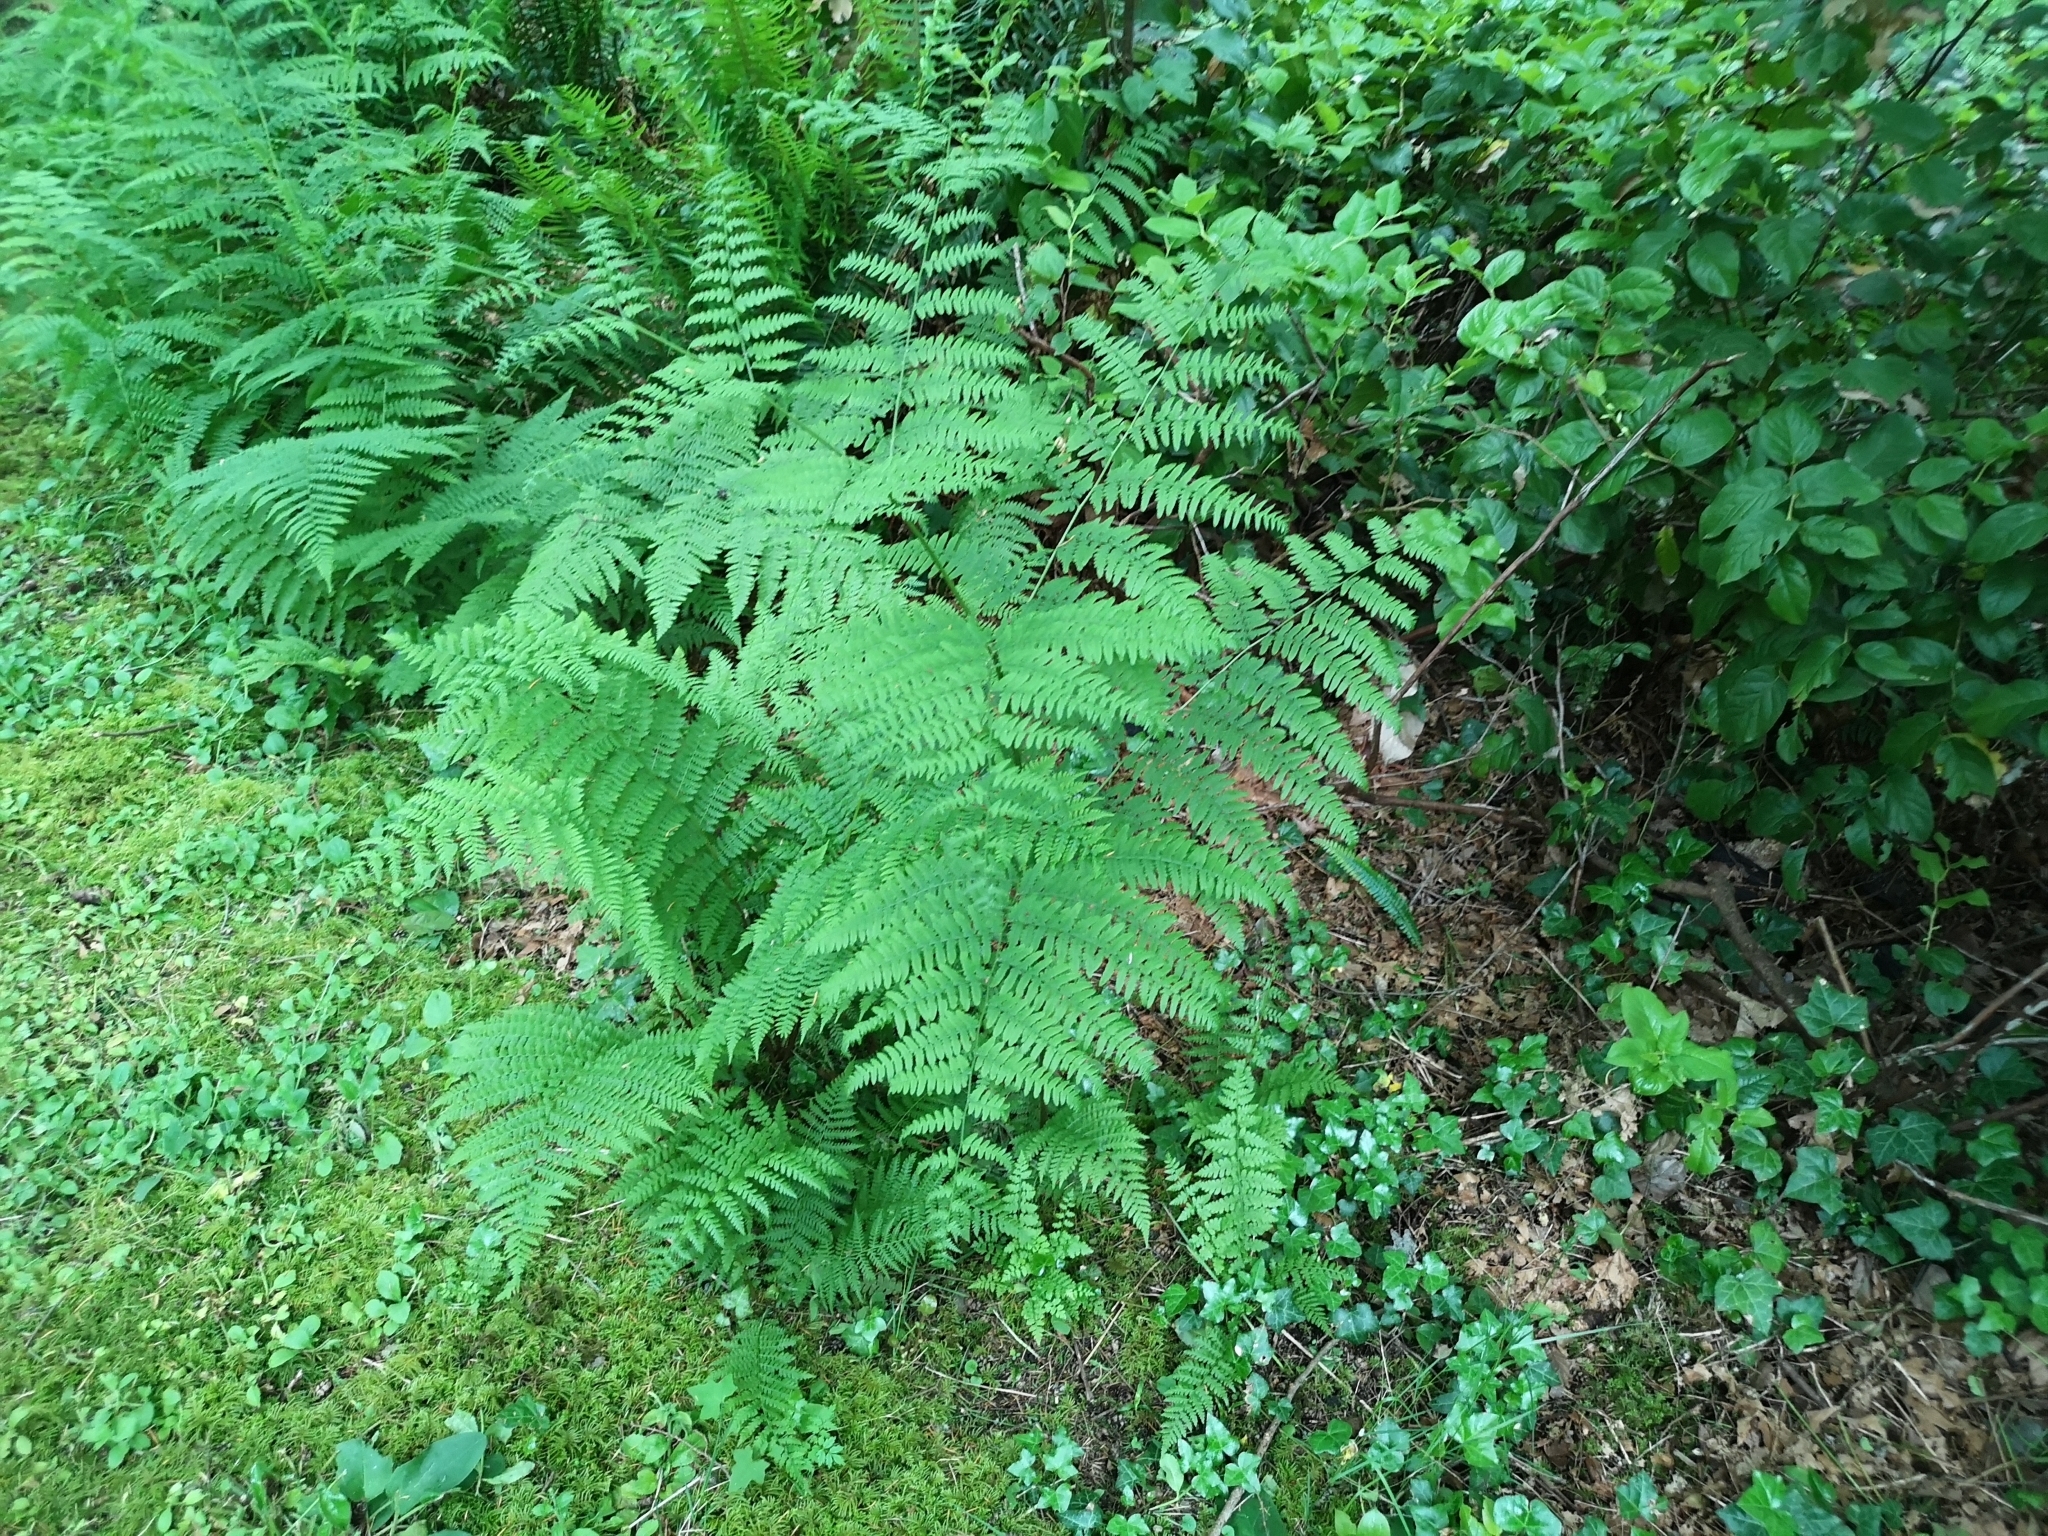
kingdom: Plantae
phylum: Tracheophyta
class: Polypodiopsida
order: Polypodiales
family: Dennstaedtiaceae
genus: Pteridium
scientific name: Pteridium aquilinum
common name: Bracken
